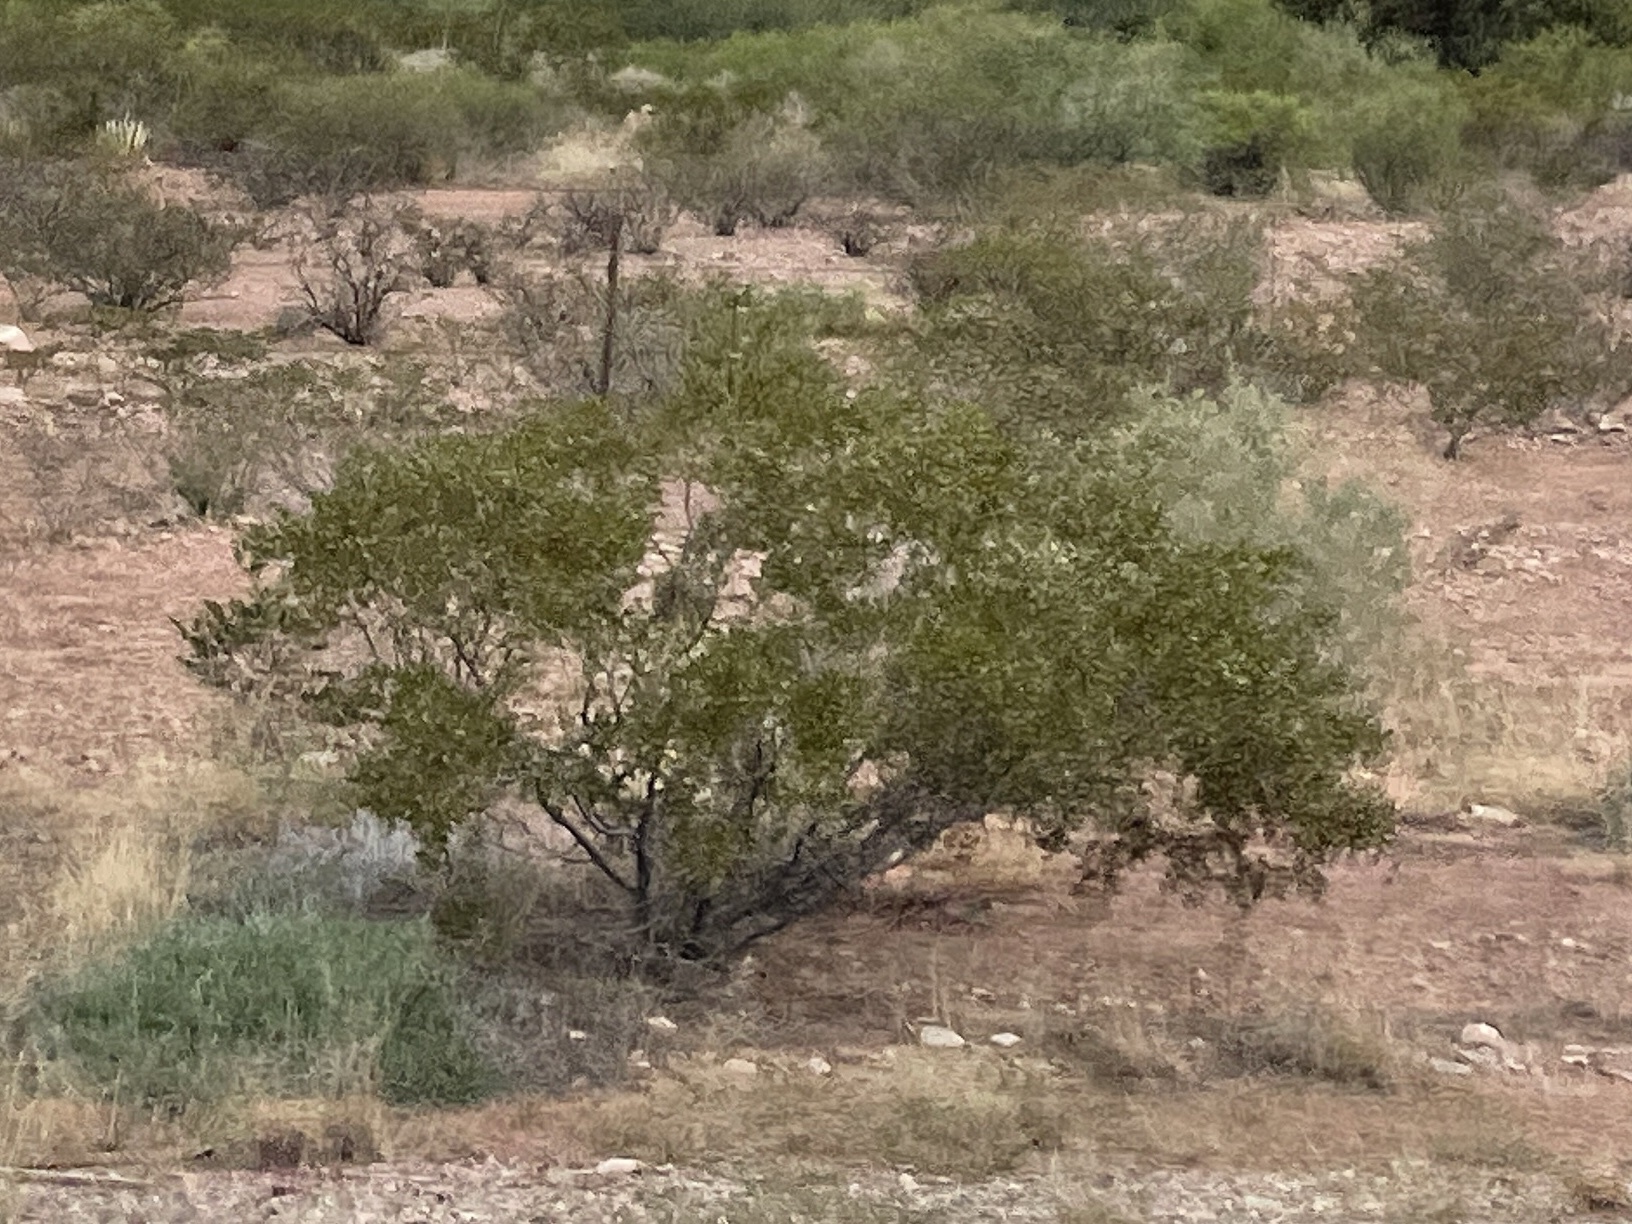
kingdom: Plantae
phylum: Tracheophyta
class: Magnoliopsida
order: Zygophyllales
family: Zygophyllaceae
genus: Larrea
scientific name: Larrea tridentata
